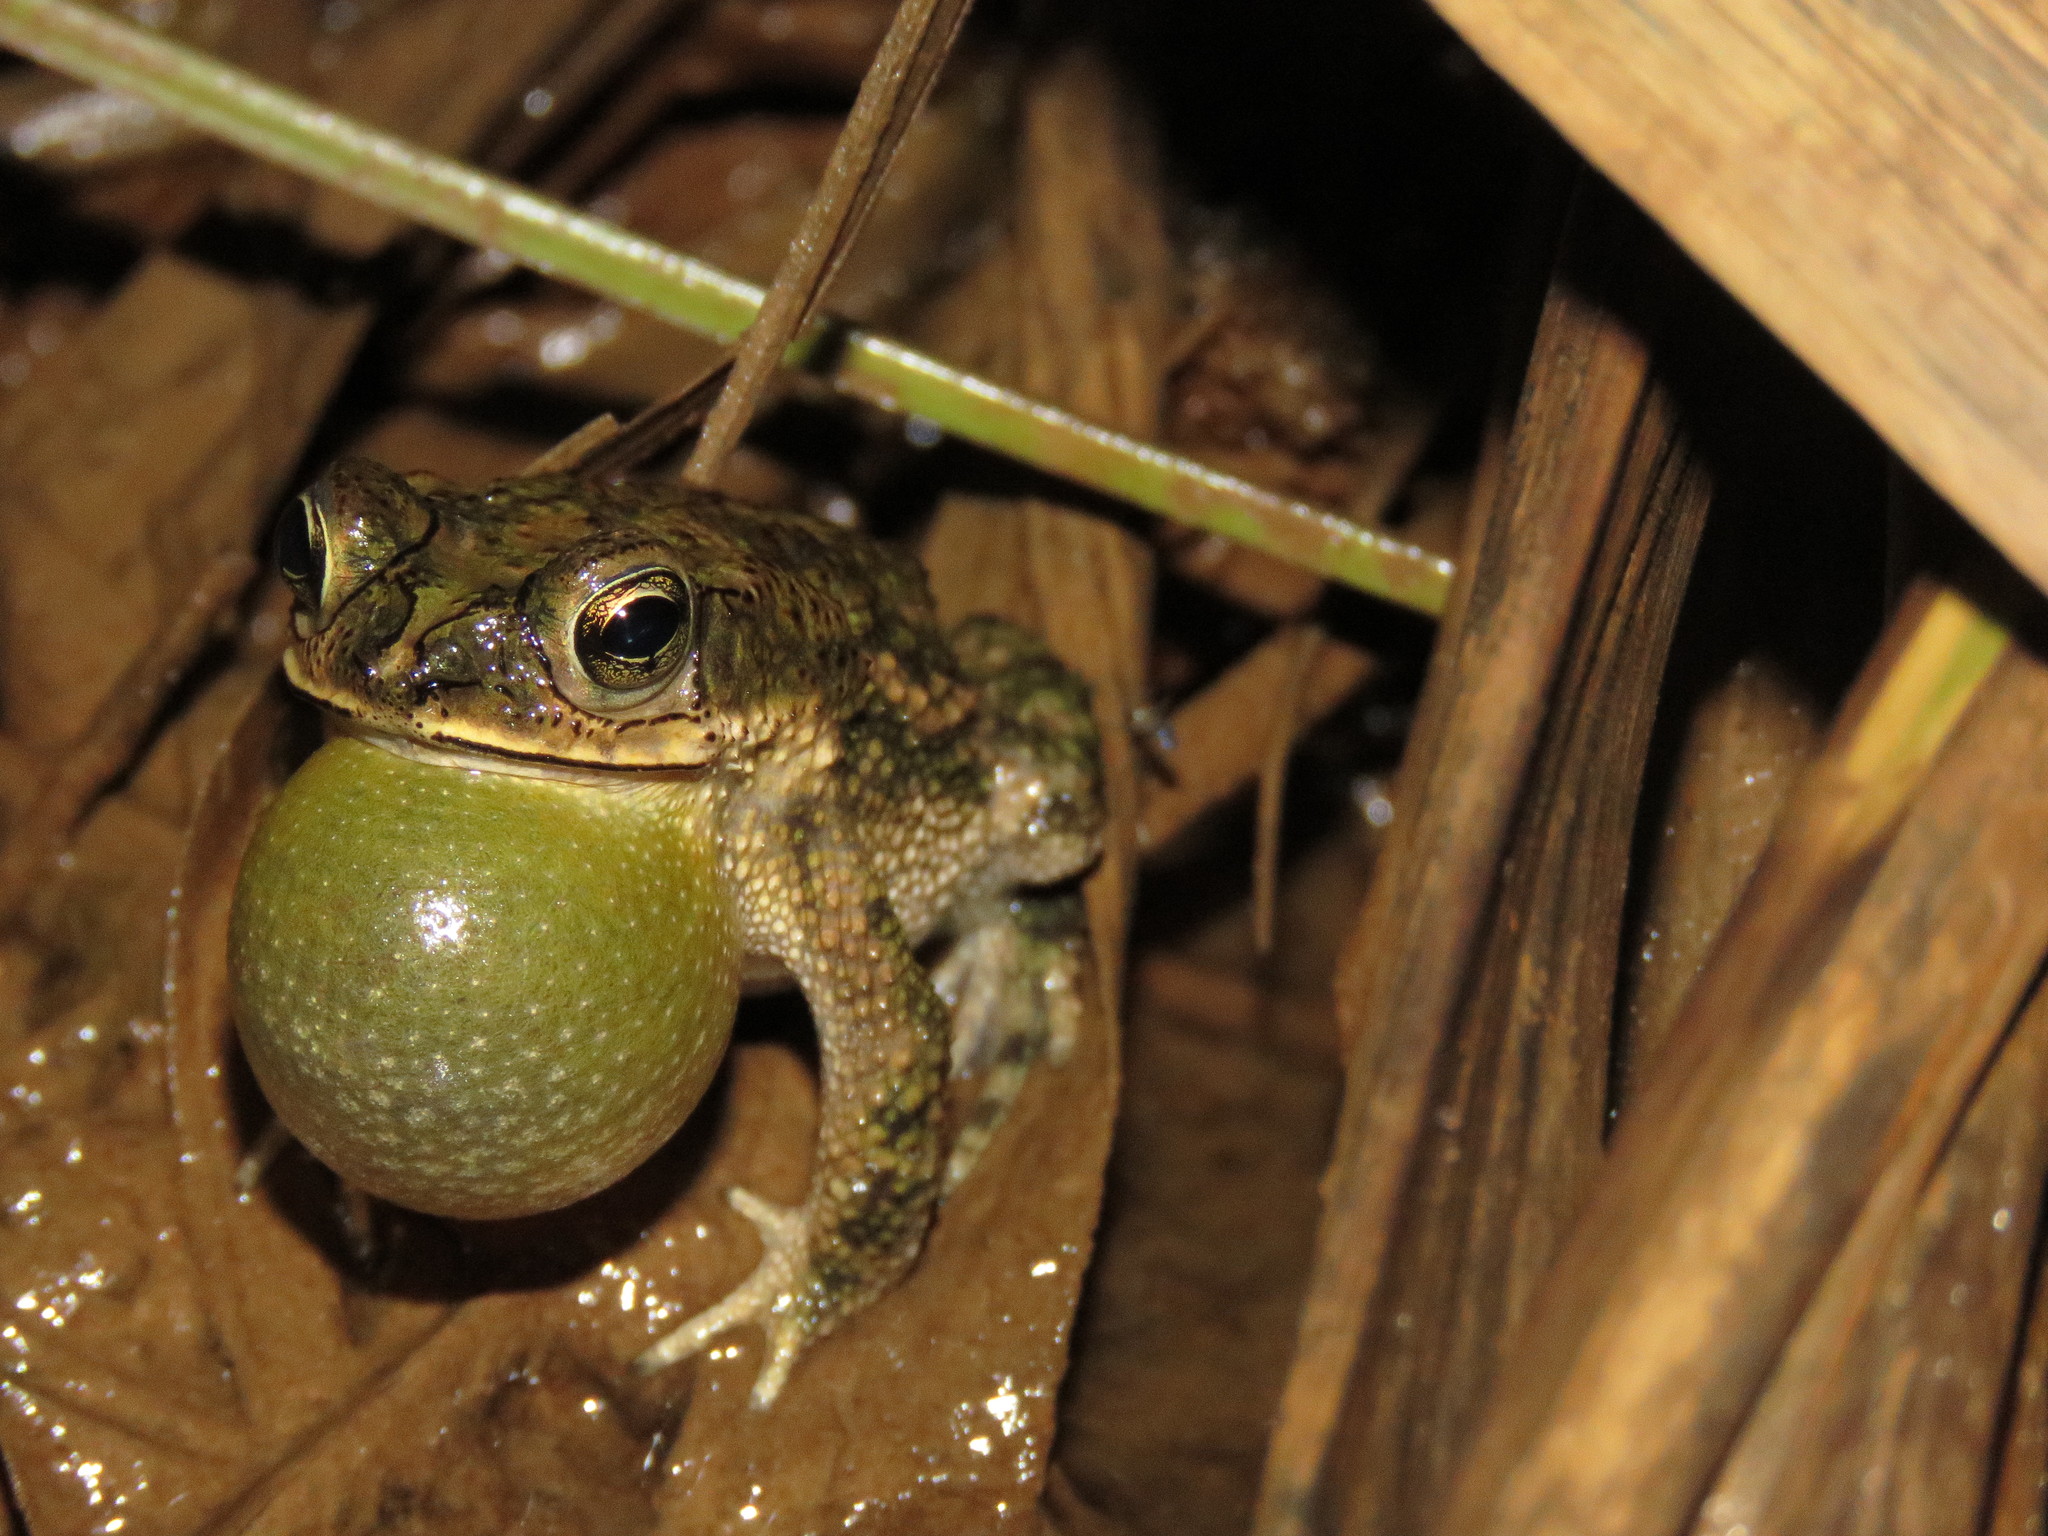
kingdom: Animalia
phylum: Chordata
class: Amphibia
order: Anura
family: Bufonidae
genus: Rhinella
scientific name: Rhinella major
